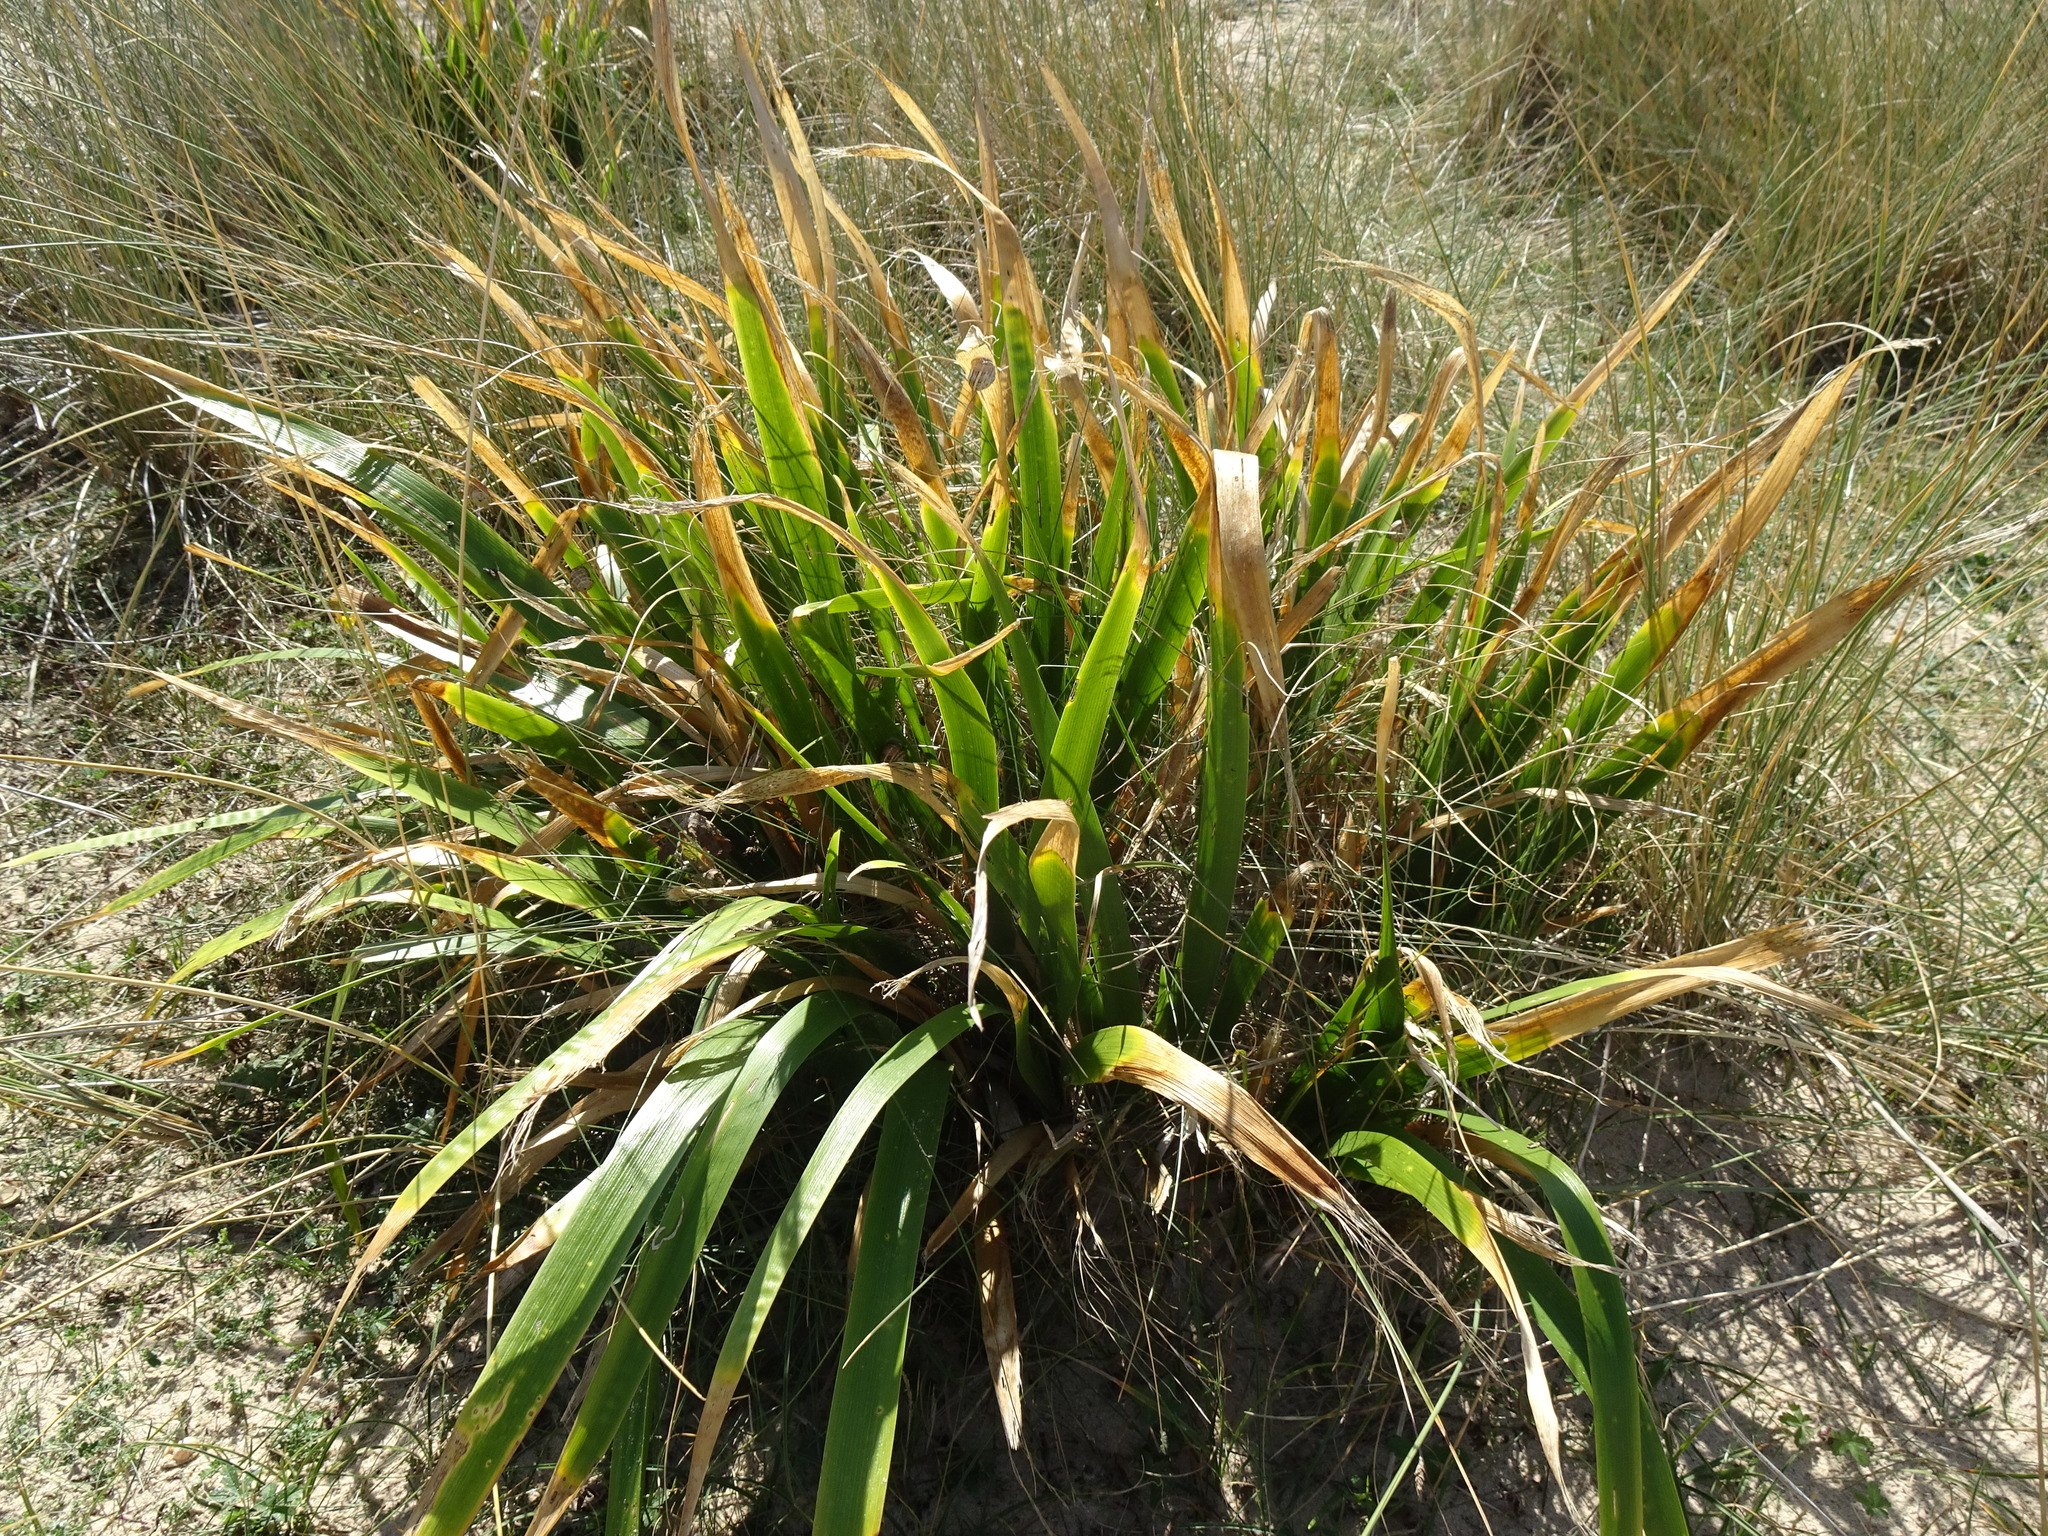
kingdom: Plantae
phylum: Tracheophyta
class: Liliopsida
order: Asparagales
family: Iridaceae
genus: Iris
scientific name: Iris foetidissima
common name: Stinking iris
